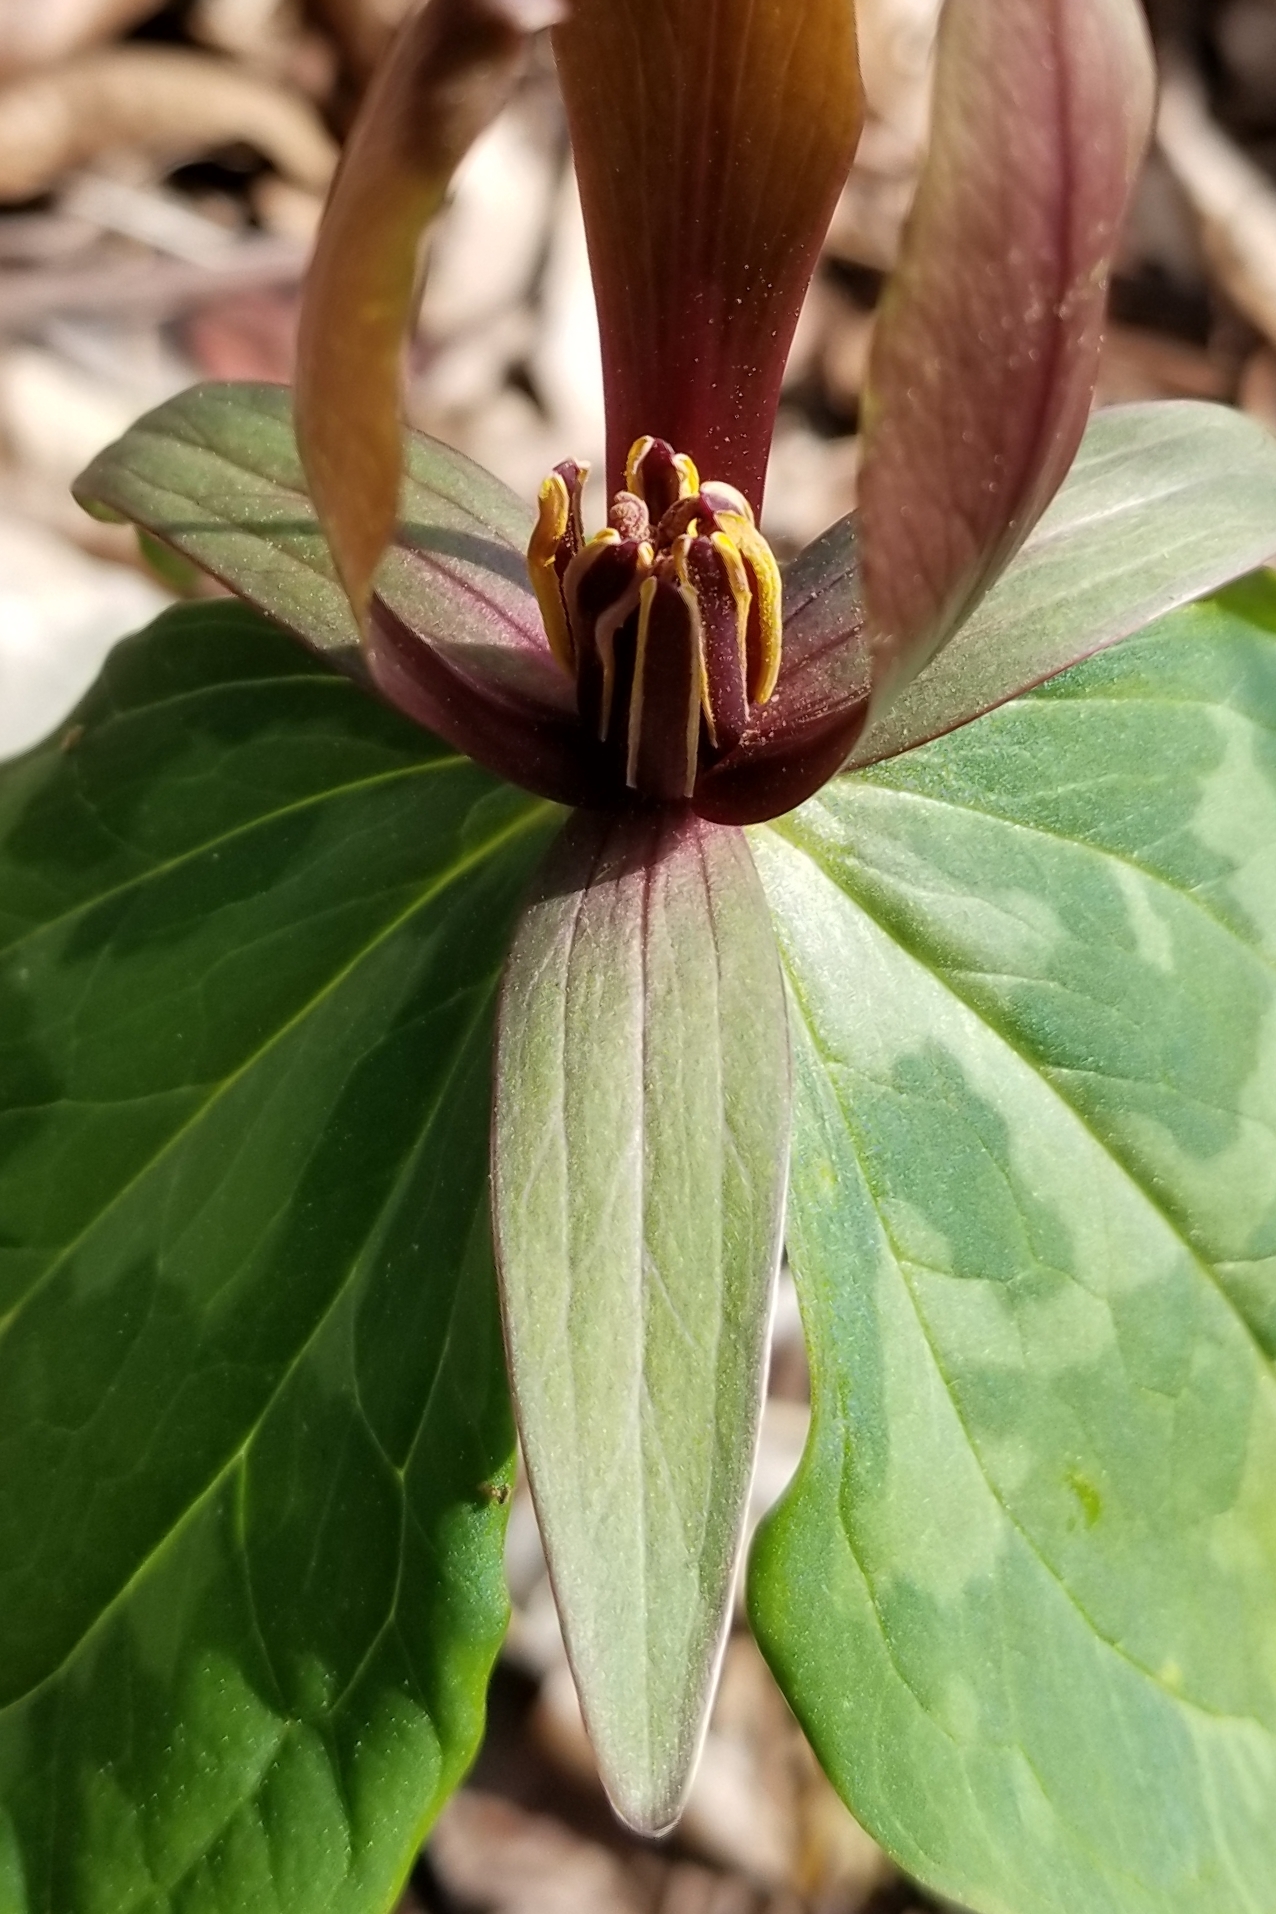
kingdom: Plantae
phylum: Tracheophyta
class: Liliopsida
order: Liliales
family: Melanthiaceae
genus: Trillium
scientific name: Trillium cuneatum
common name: Cuneate trillium
